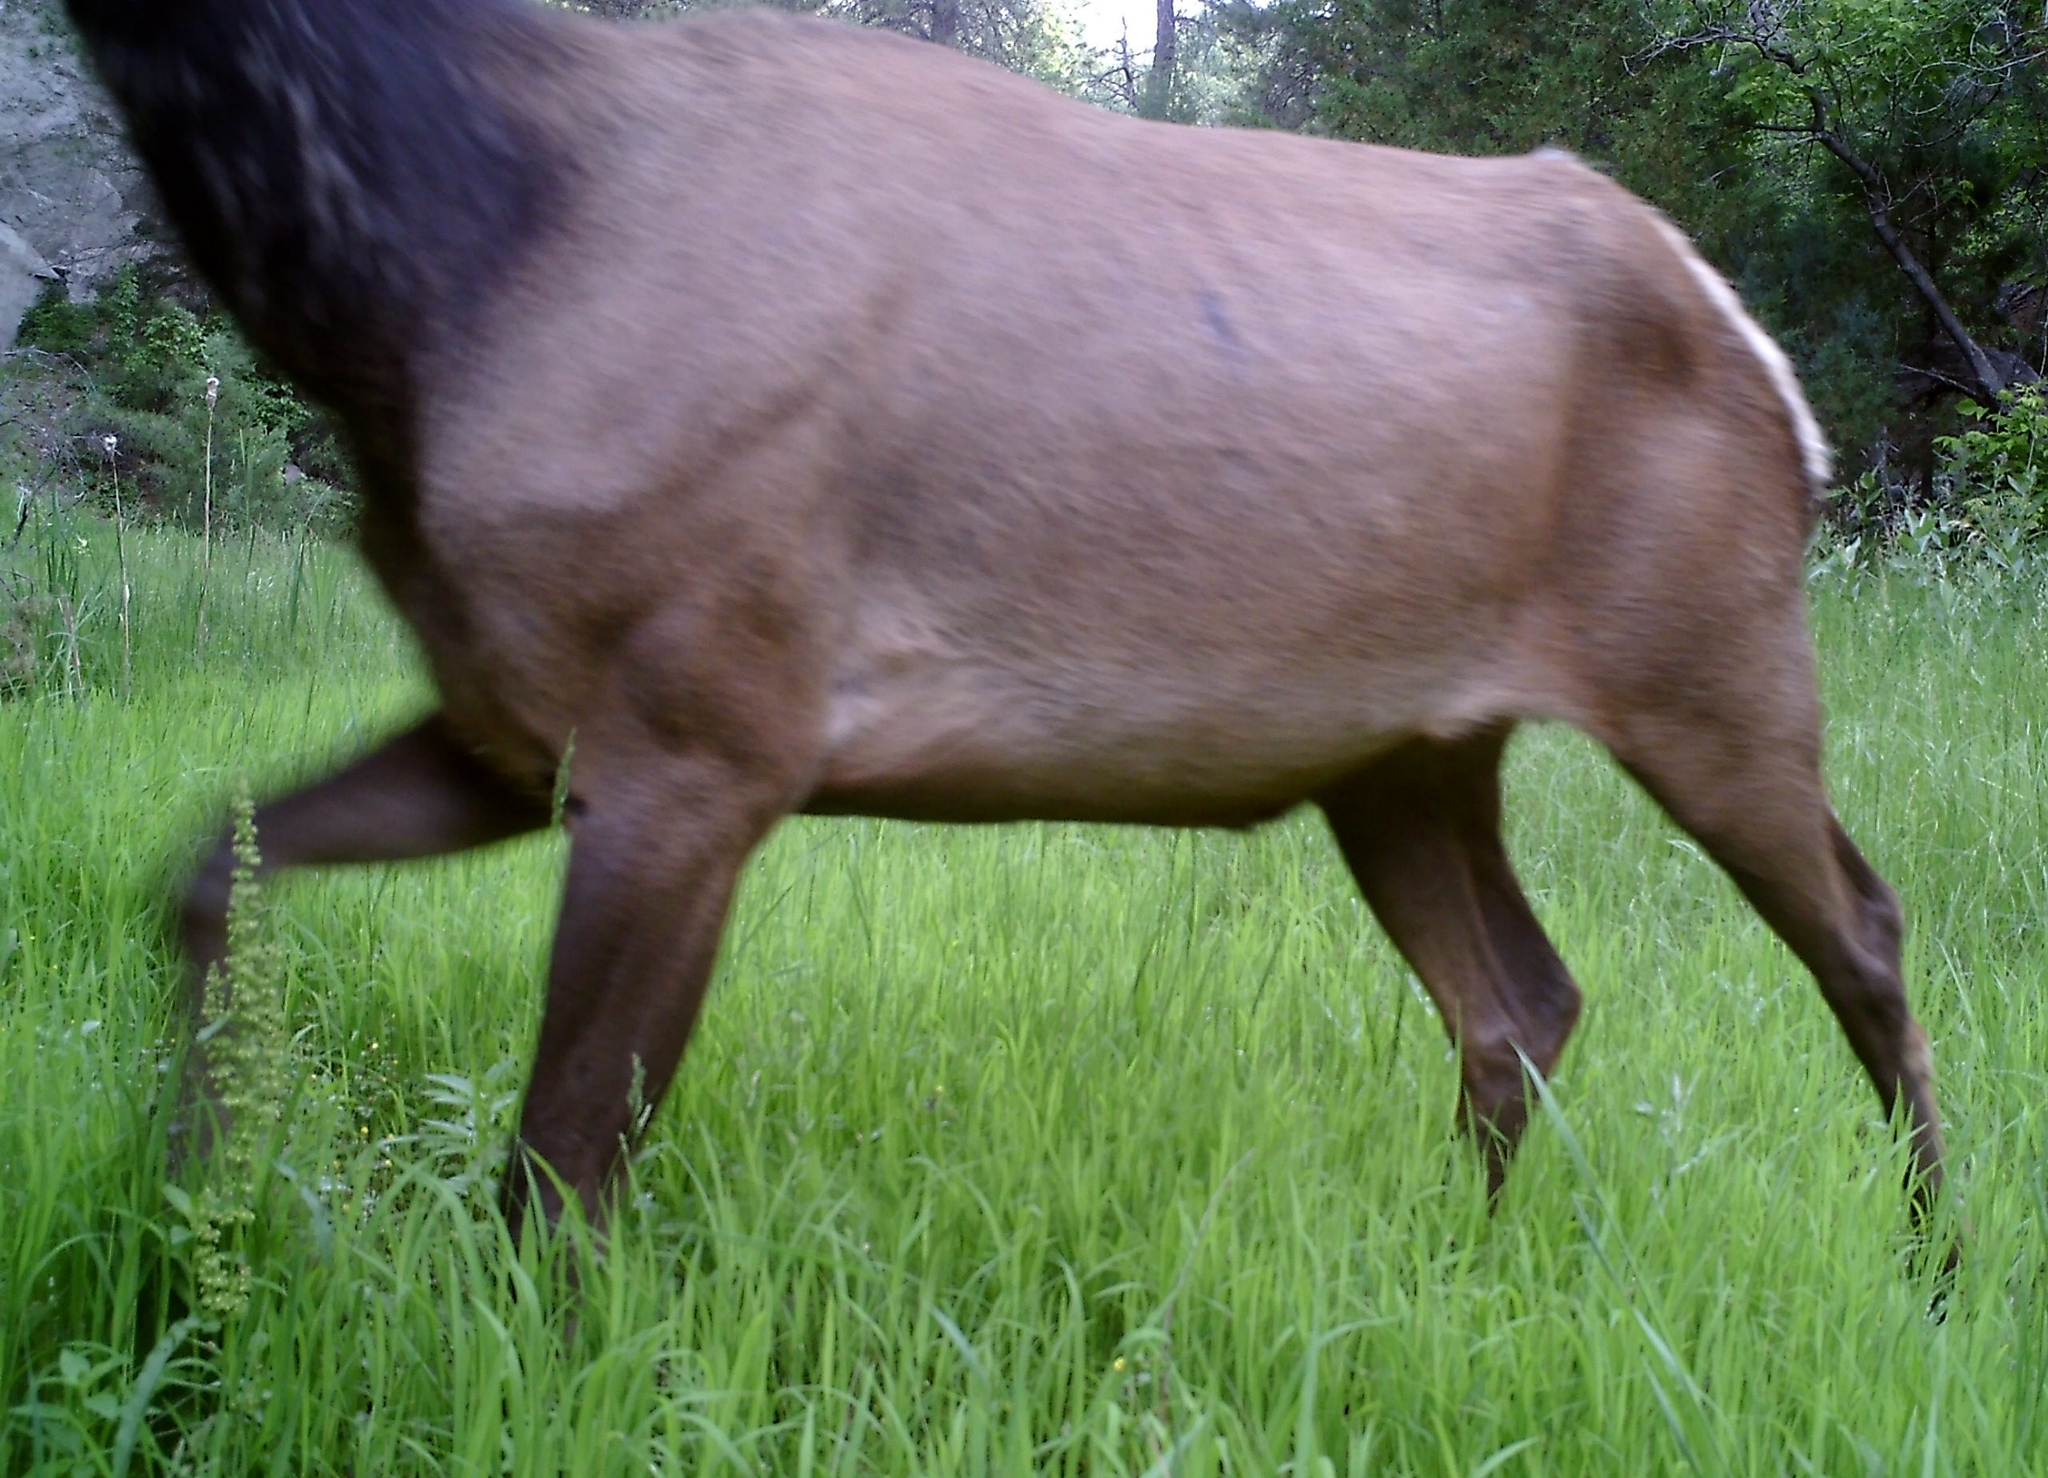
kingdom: Animalia
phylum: Chordata
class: Mammalia
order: Artiodactyla
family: Cervidae
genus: Cervus
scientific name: Cervus elaphus
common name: Red deer
